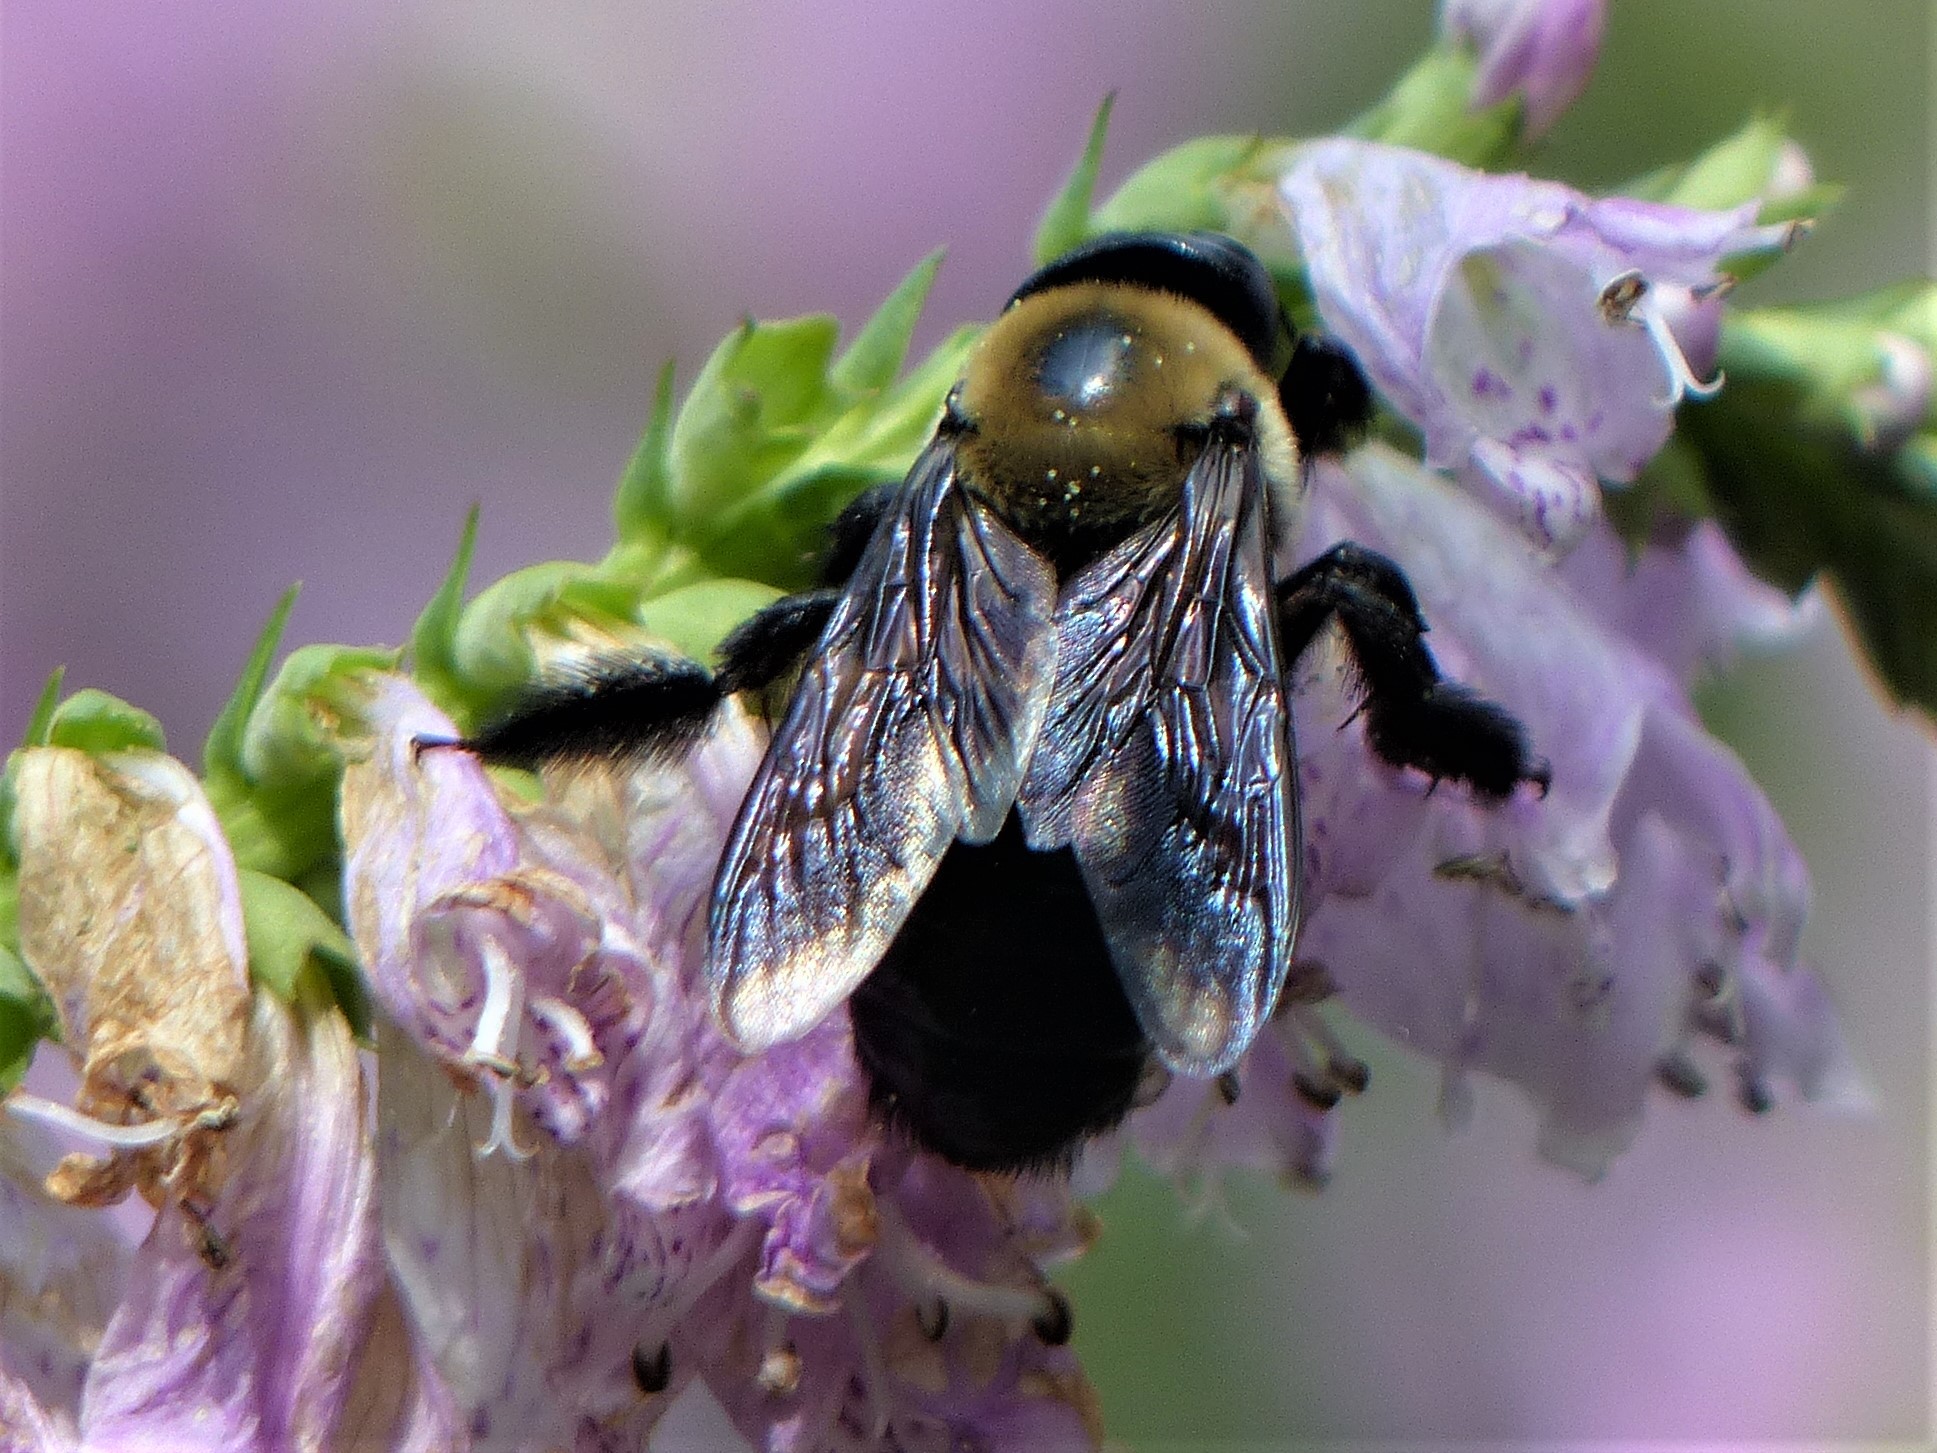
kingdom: Animalia
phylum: Arthropoda
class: Insecta
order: Hymenoptera
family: Apidae
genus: Xylocopa
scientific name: Xylocopa virginica
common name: Carpenter bee
